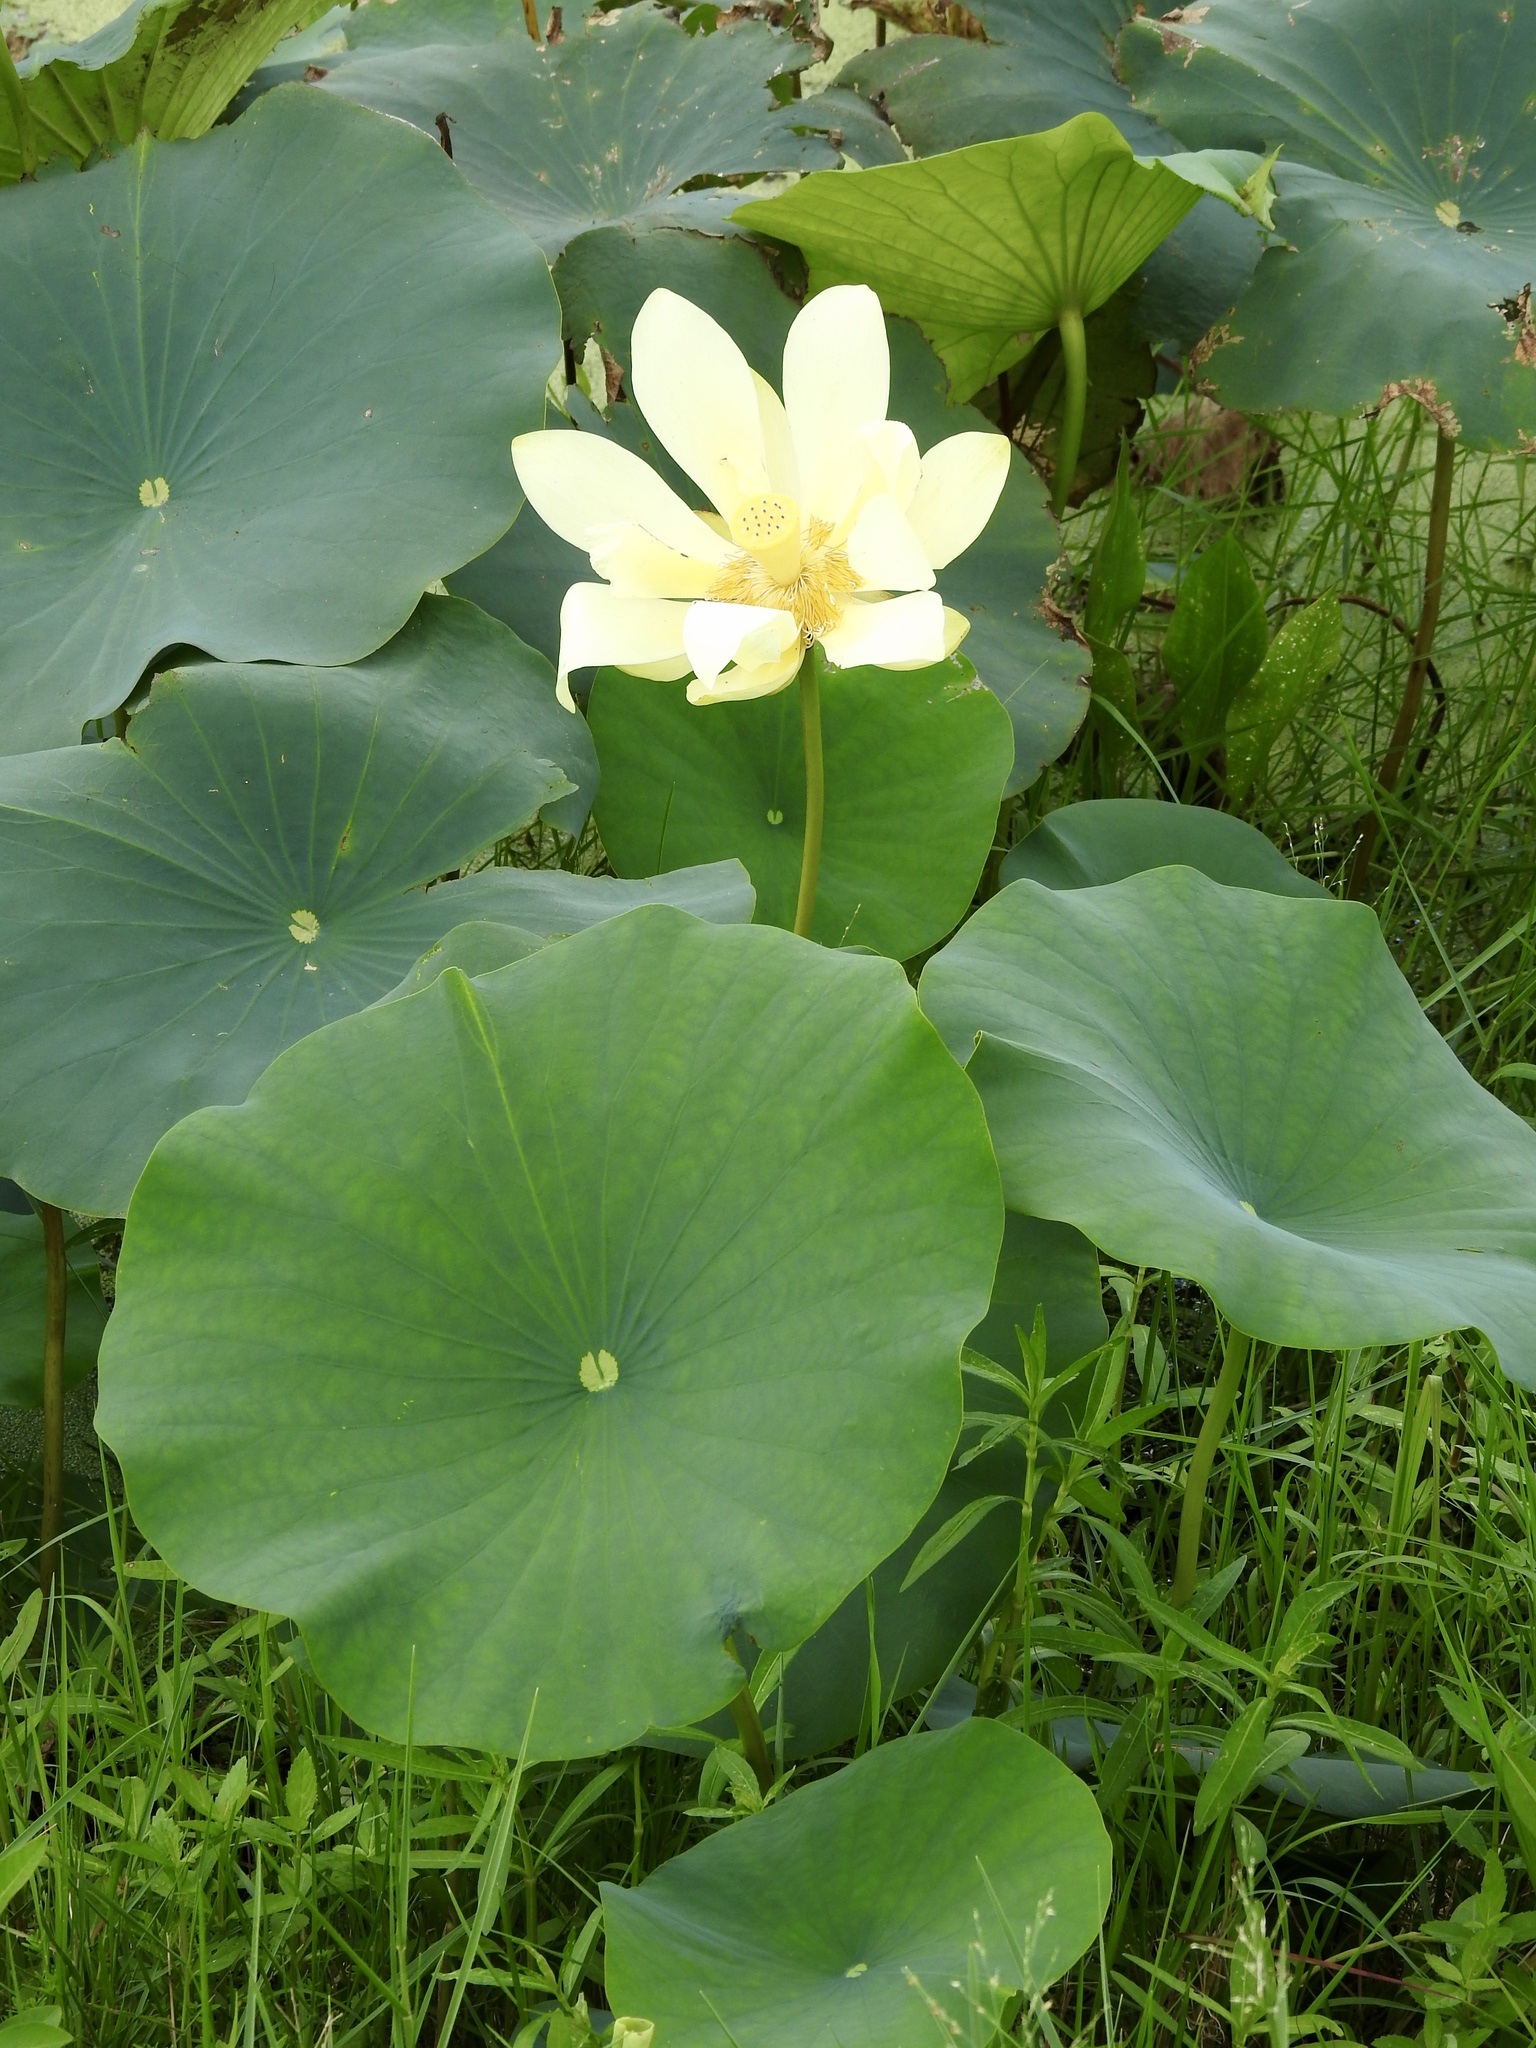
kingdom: Plantae
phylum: Tracheophyta
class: Magnoliopsida
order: Proteales
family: Nelumbonaceae
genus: Nelumbo
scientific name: Nelumbo lutea
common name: American lotus
